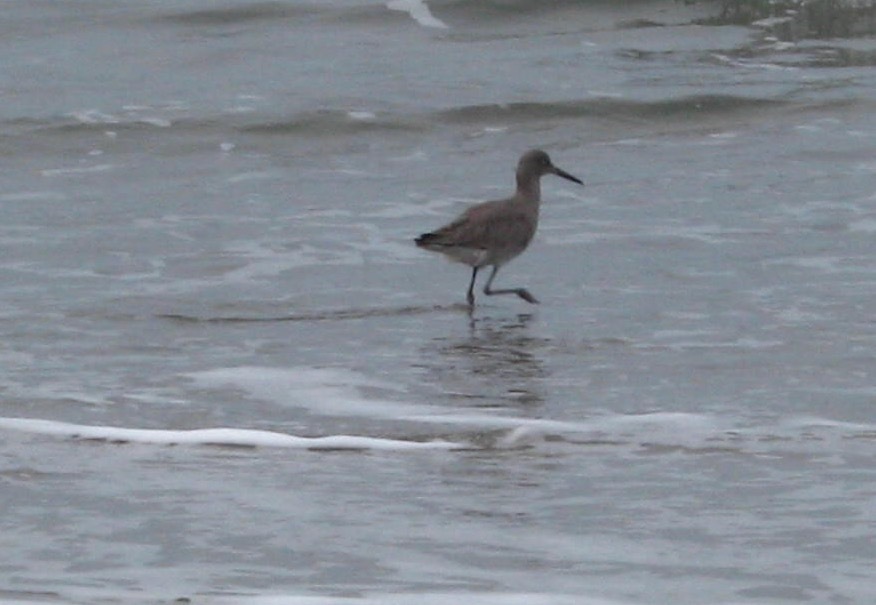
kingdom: Animalia
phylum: Chordata
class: Aves
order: Charadriiformes
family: Scolopacidae
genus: Tringa
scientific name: Tringa semipalmata
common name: Willet
